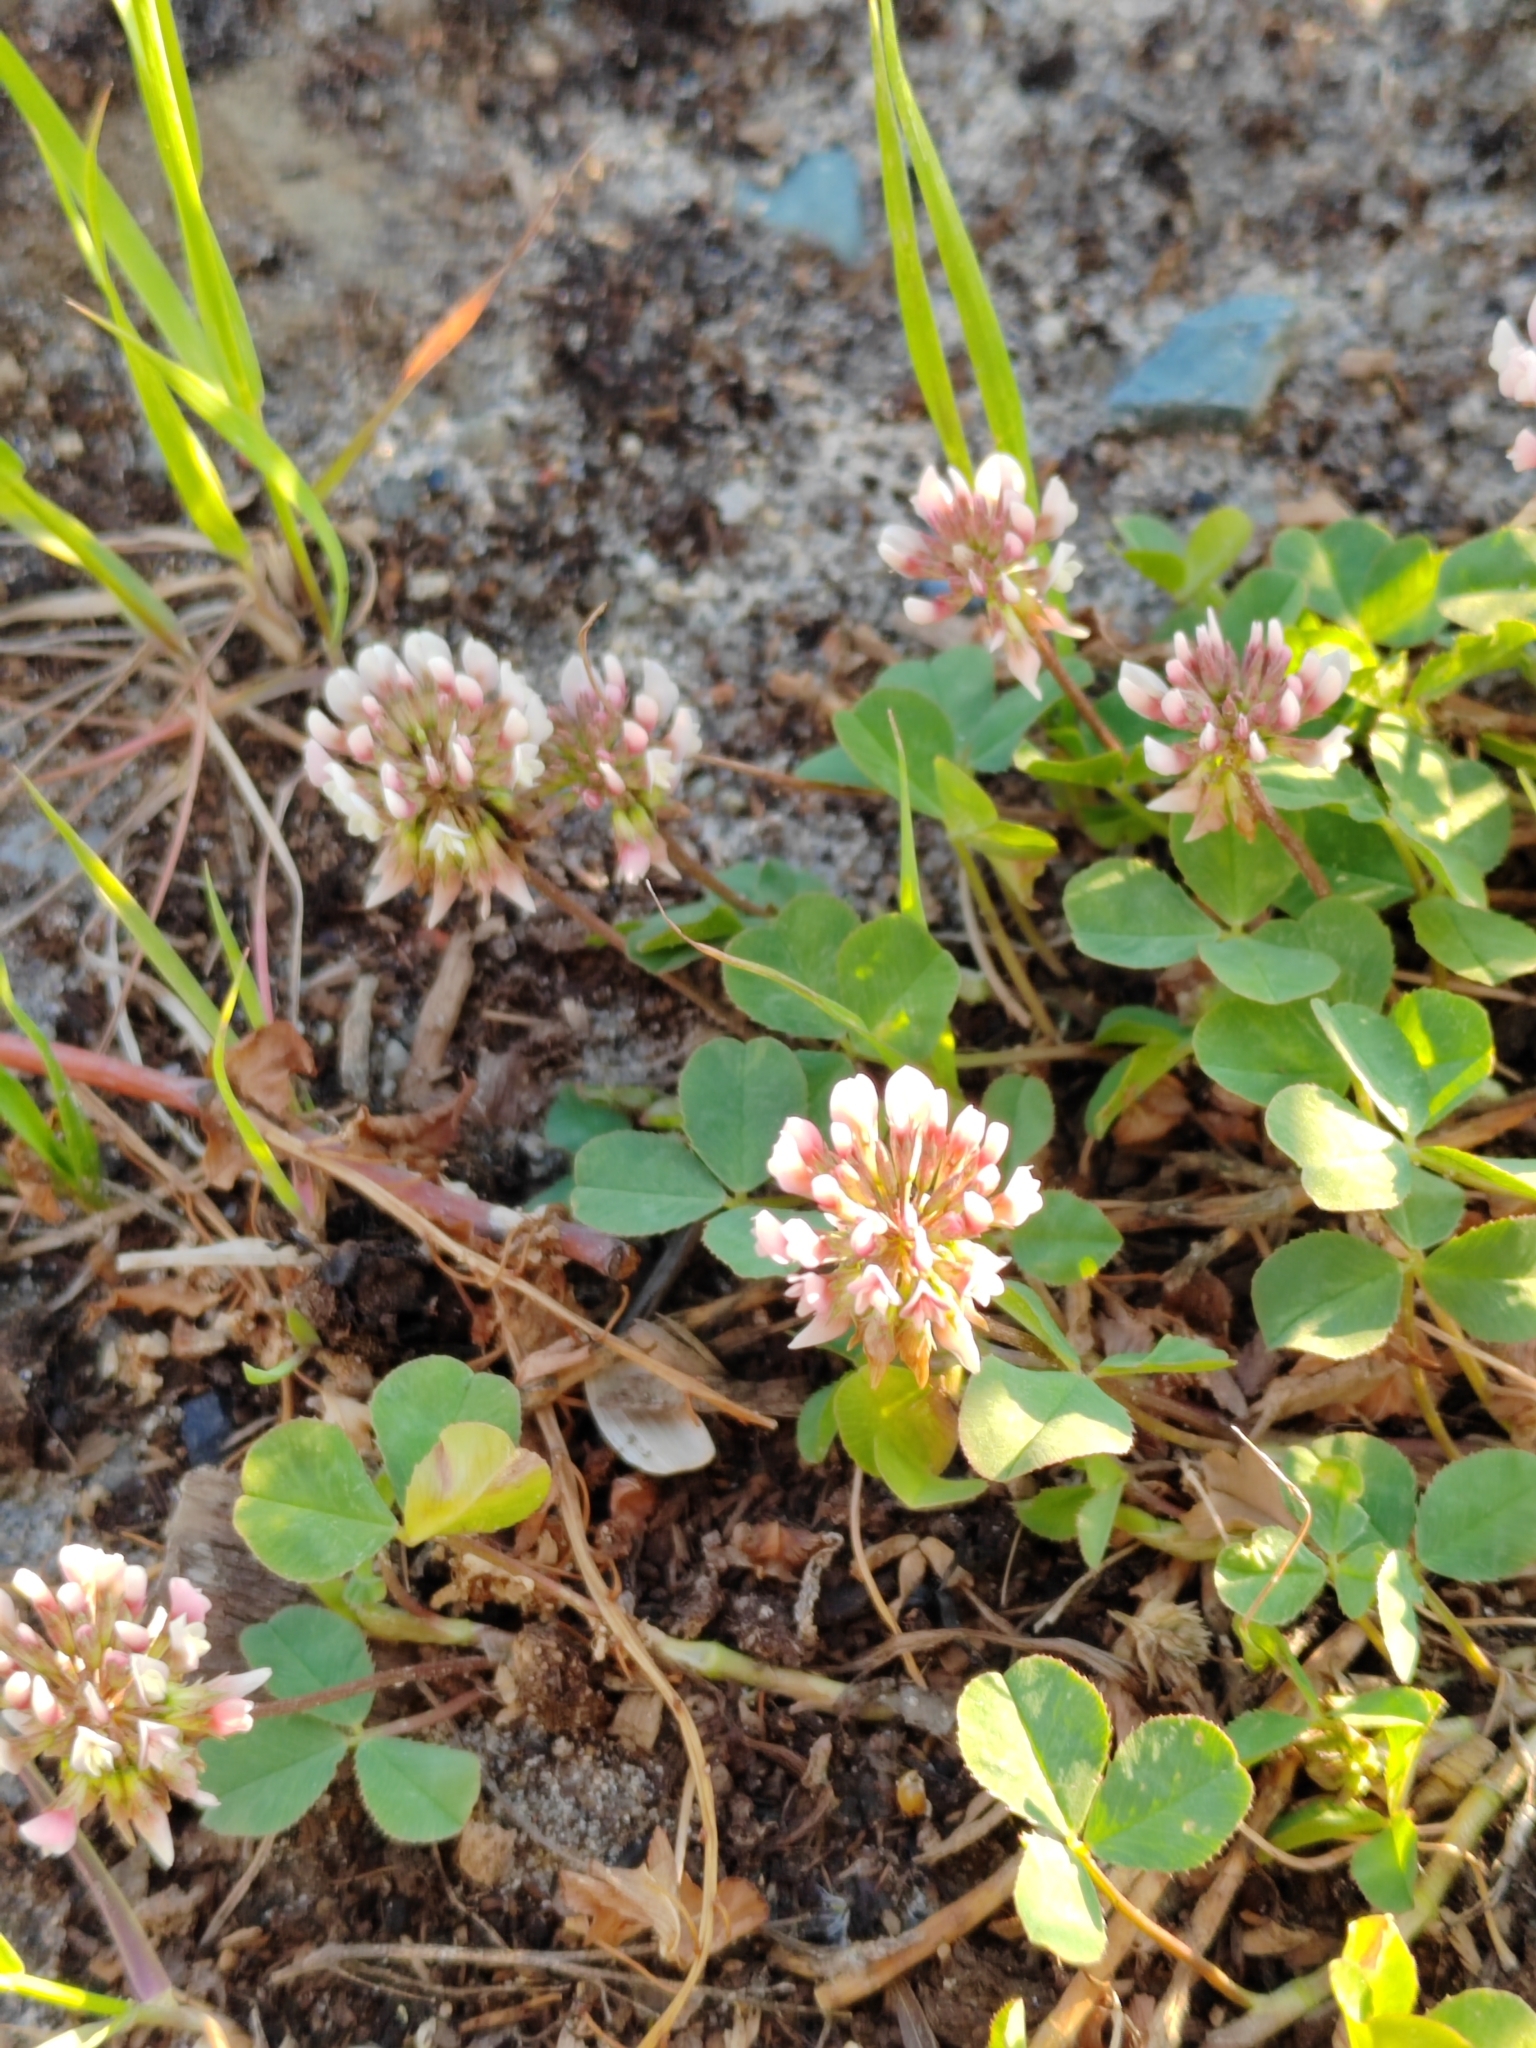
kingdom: Plantae
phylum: Tracheophyta
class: Magnoliopsida
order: Fabales
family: Fabaceae
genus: Trifolium
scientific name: Trifolium repens
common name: White clover
